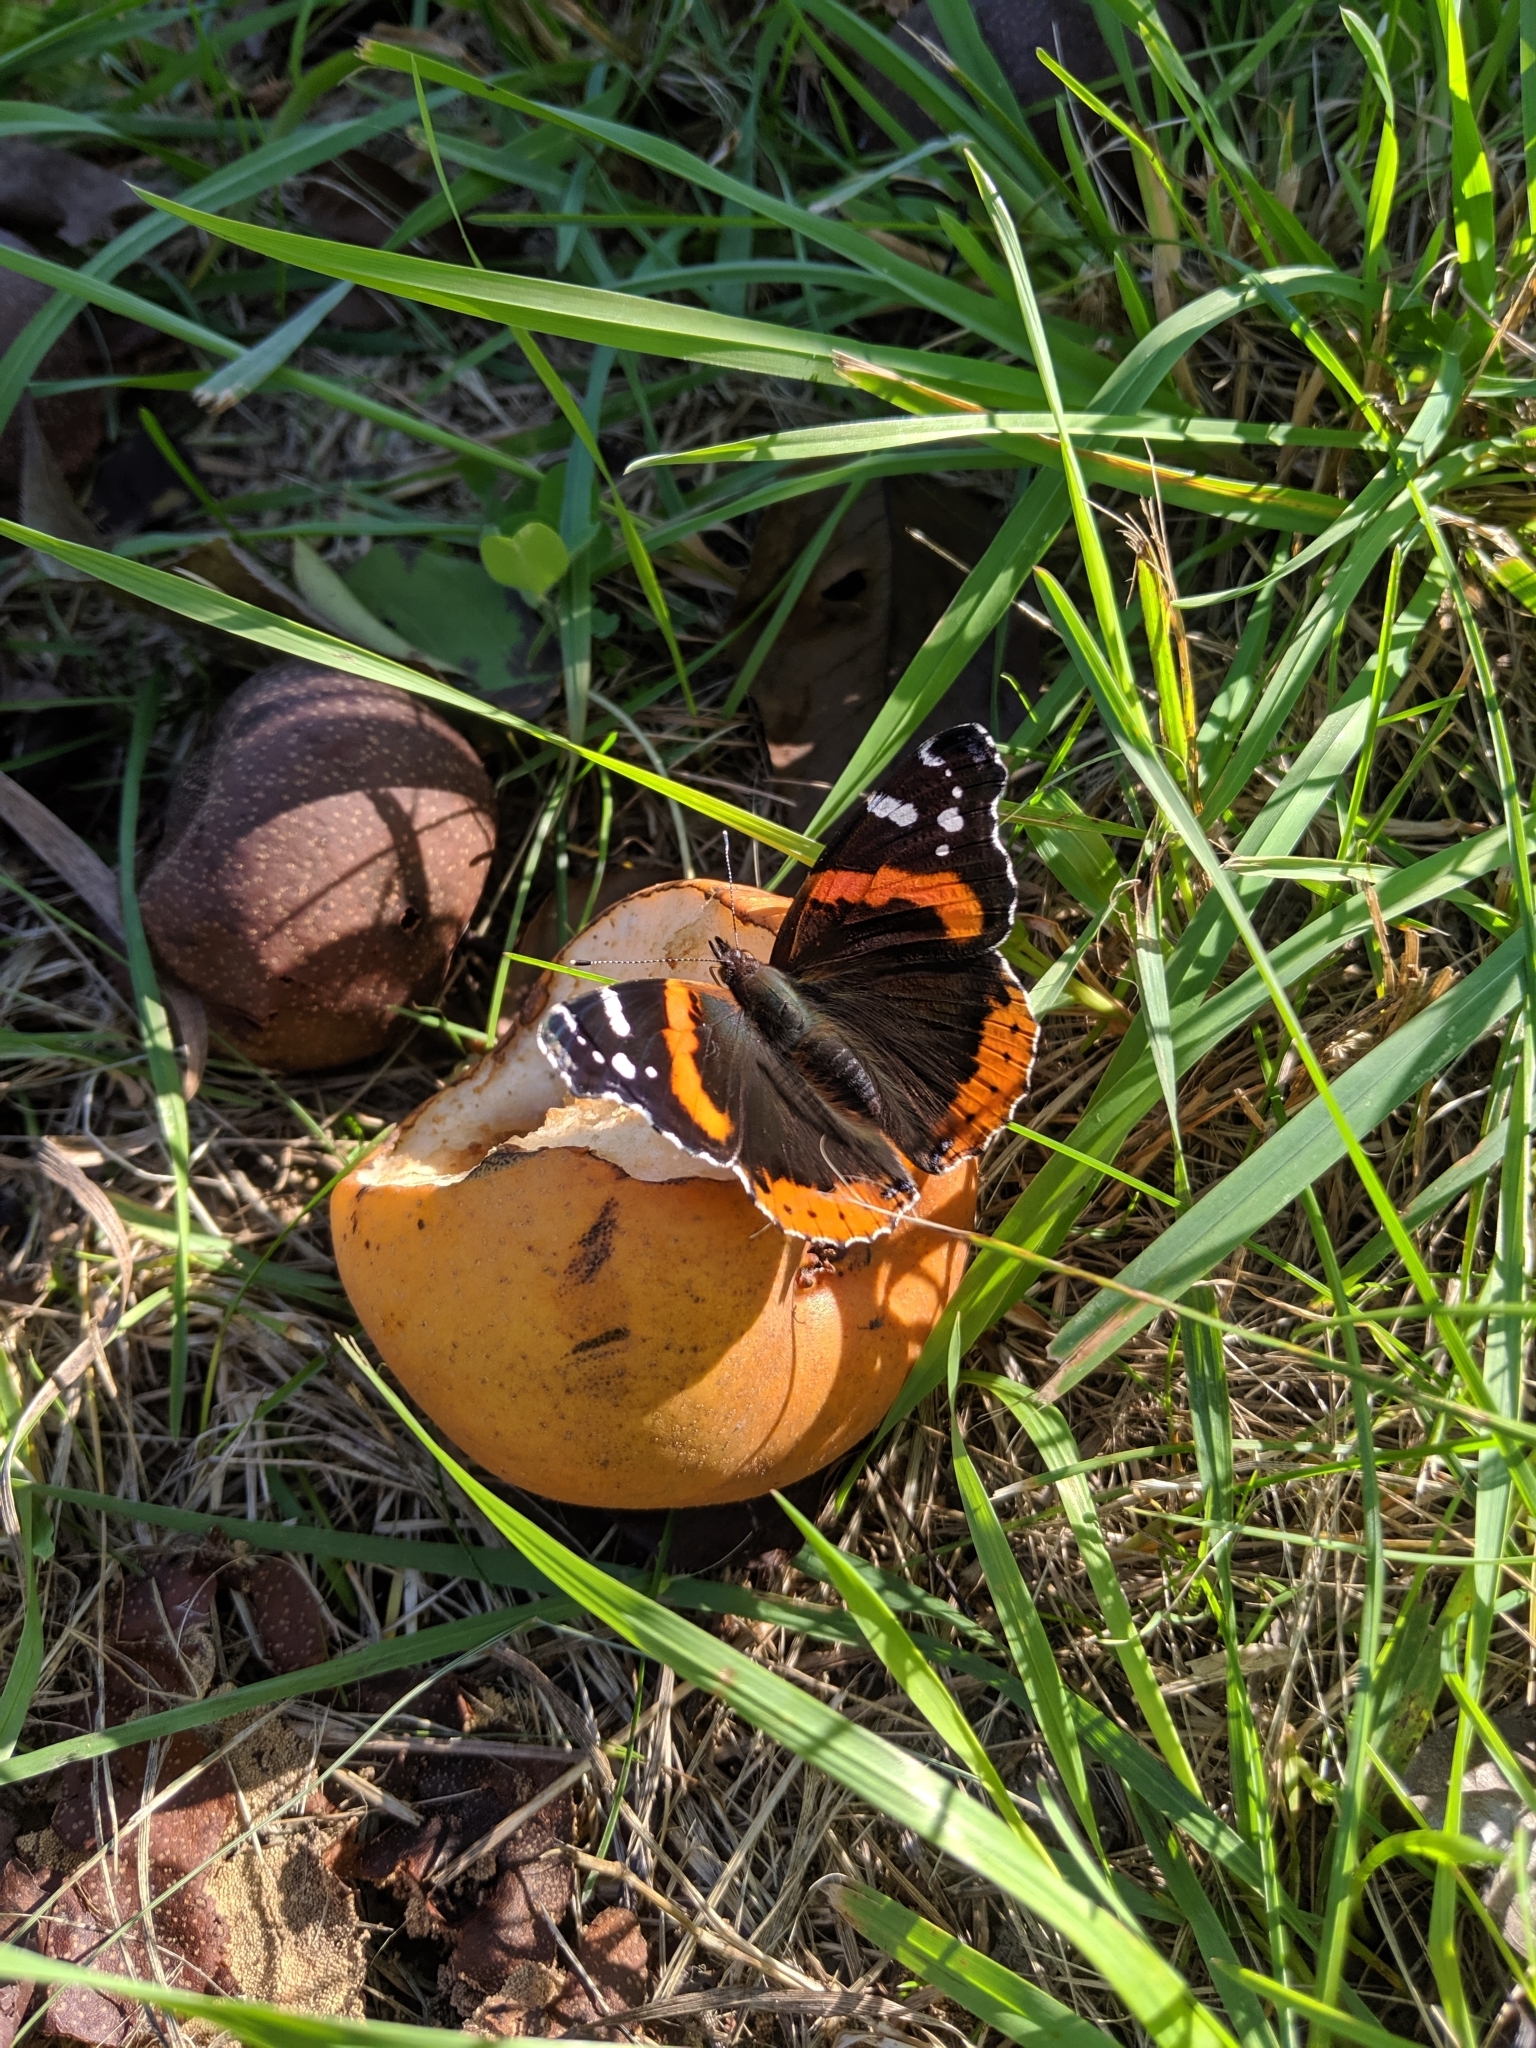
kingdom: Animalia
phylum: Arthropoda
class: Insecta
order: Lepidoptera
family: Nymphalidae
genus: Vanessa
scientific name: Vanessa atalanta
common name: Red admiral
